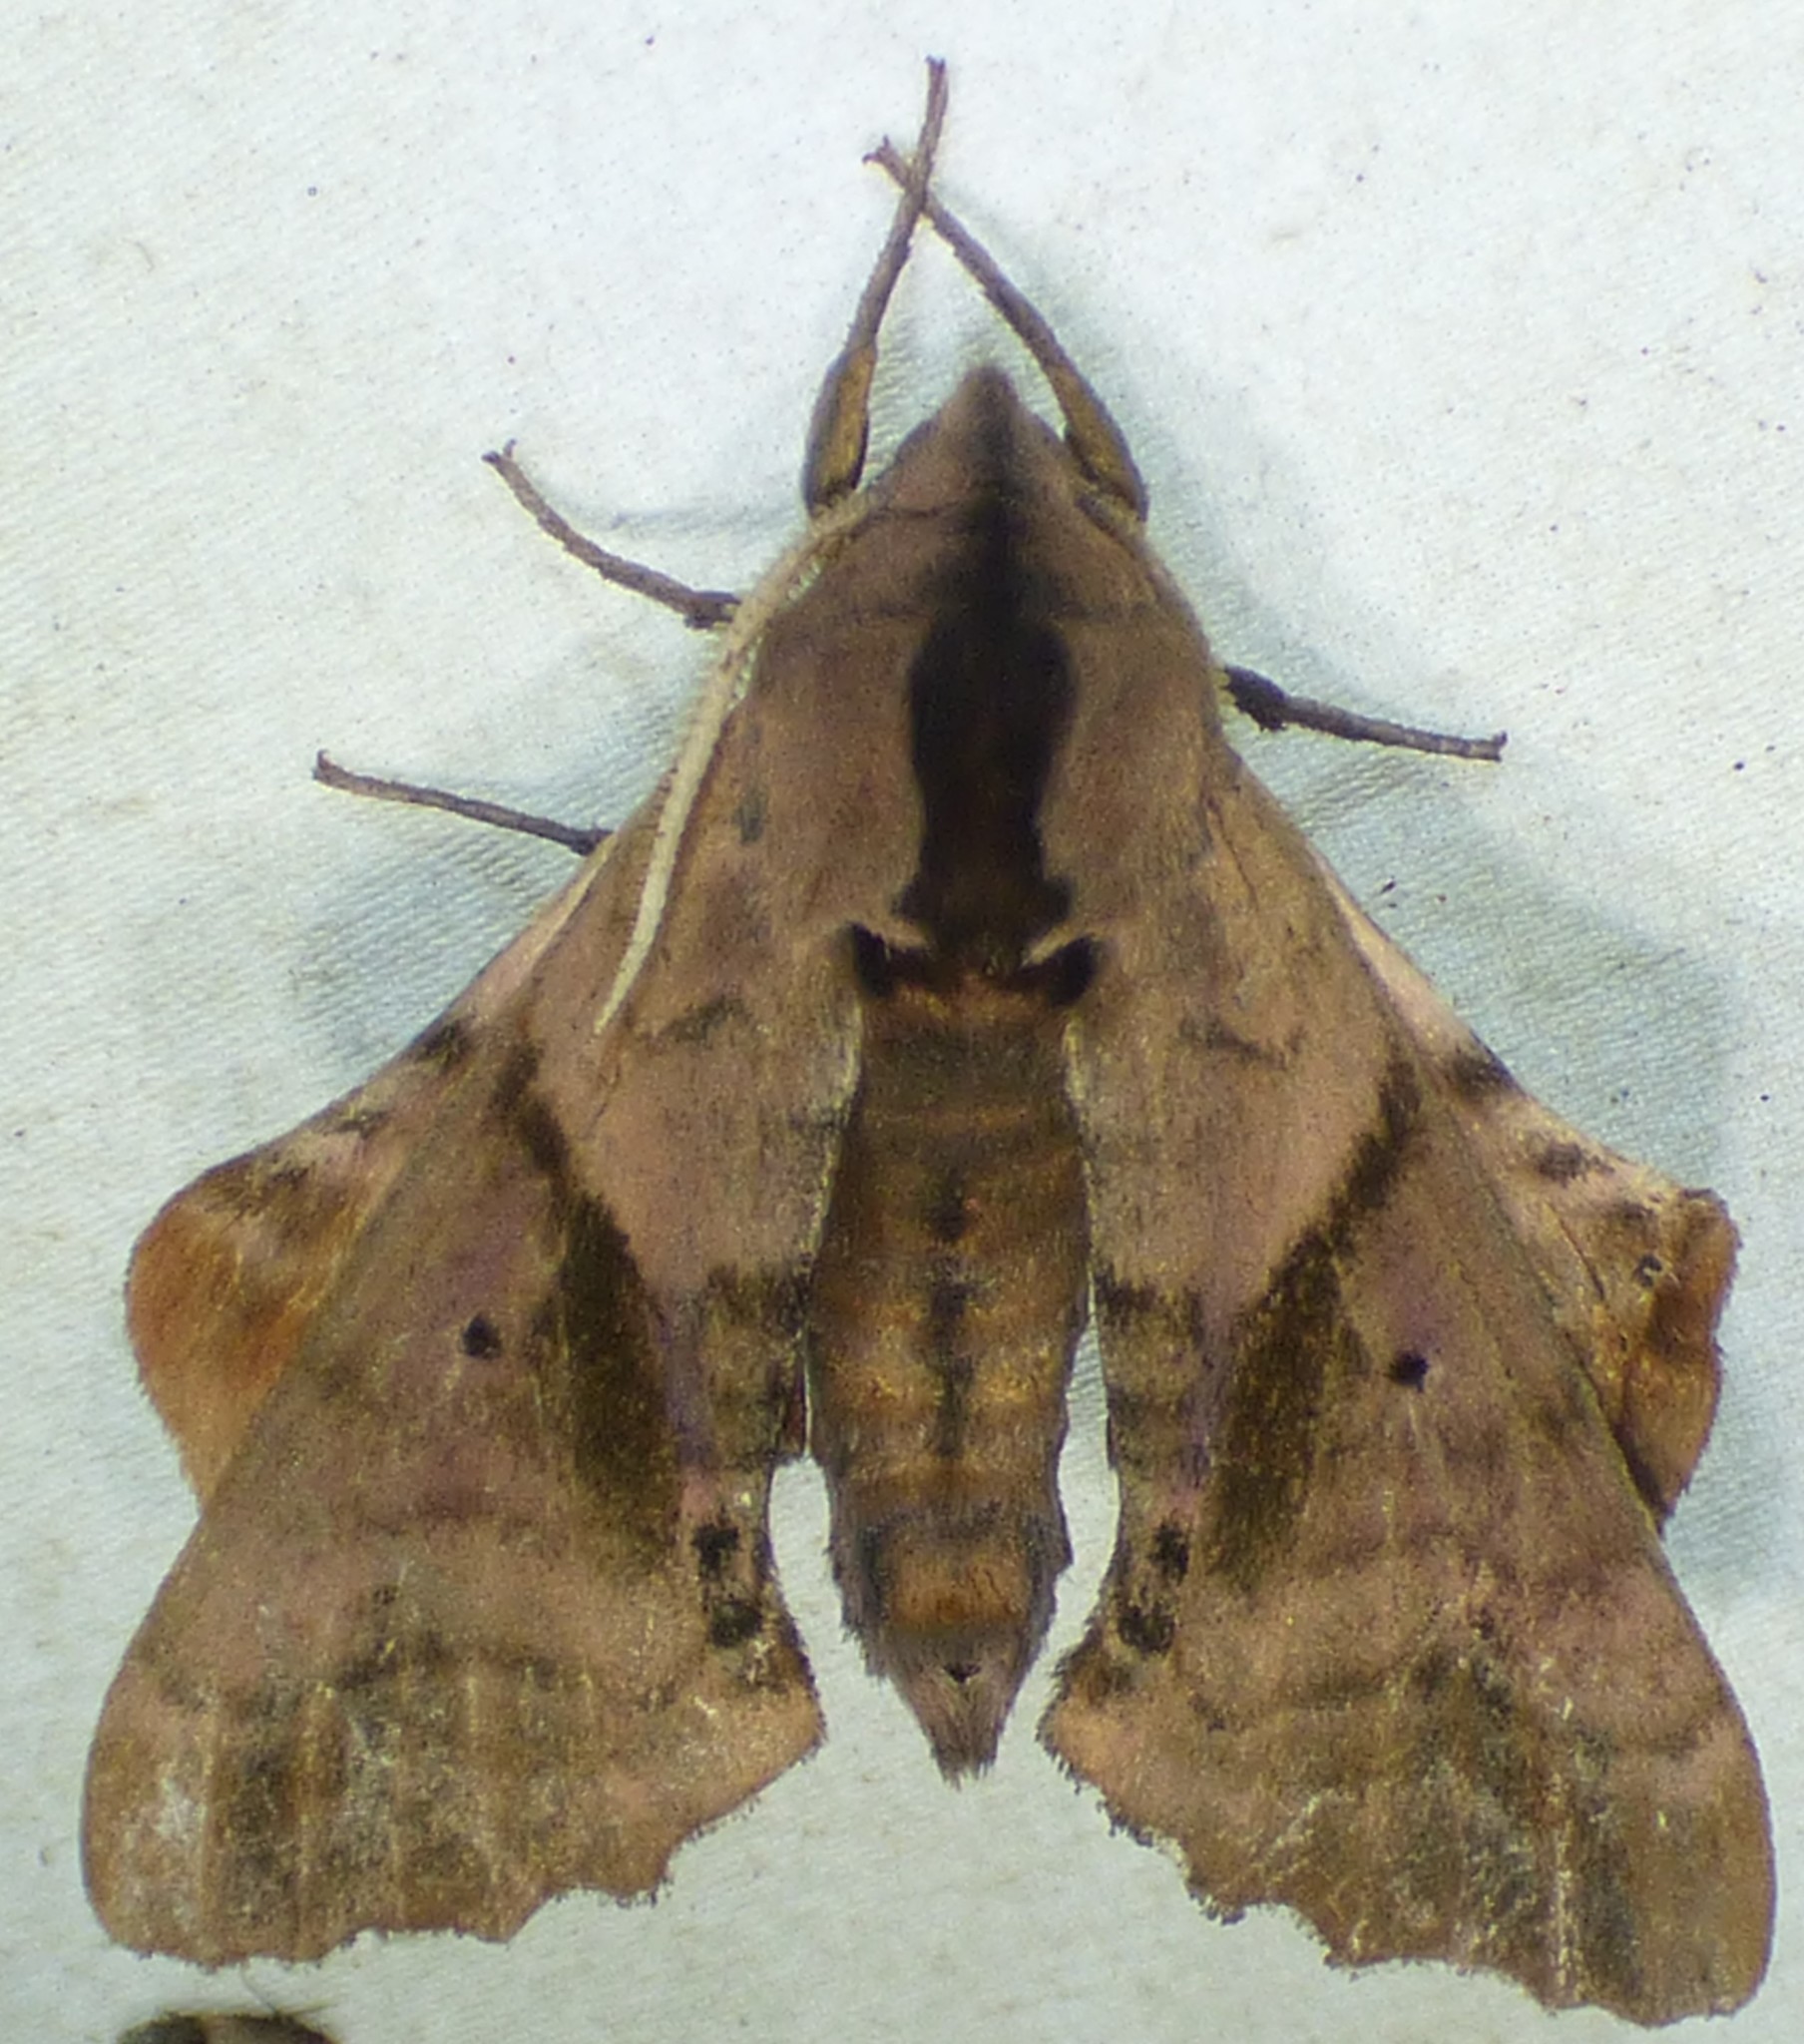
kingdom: Animalia
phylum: Arthropoda
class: Insecta
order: Lepidoptera
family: Sphingidae
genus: Paonias
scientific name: Paonias excaecata
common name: Blind-eyed sphinx
